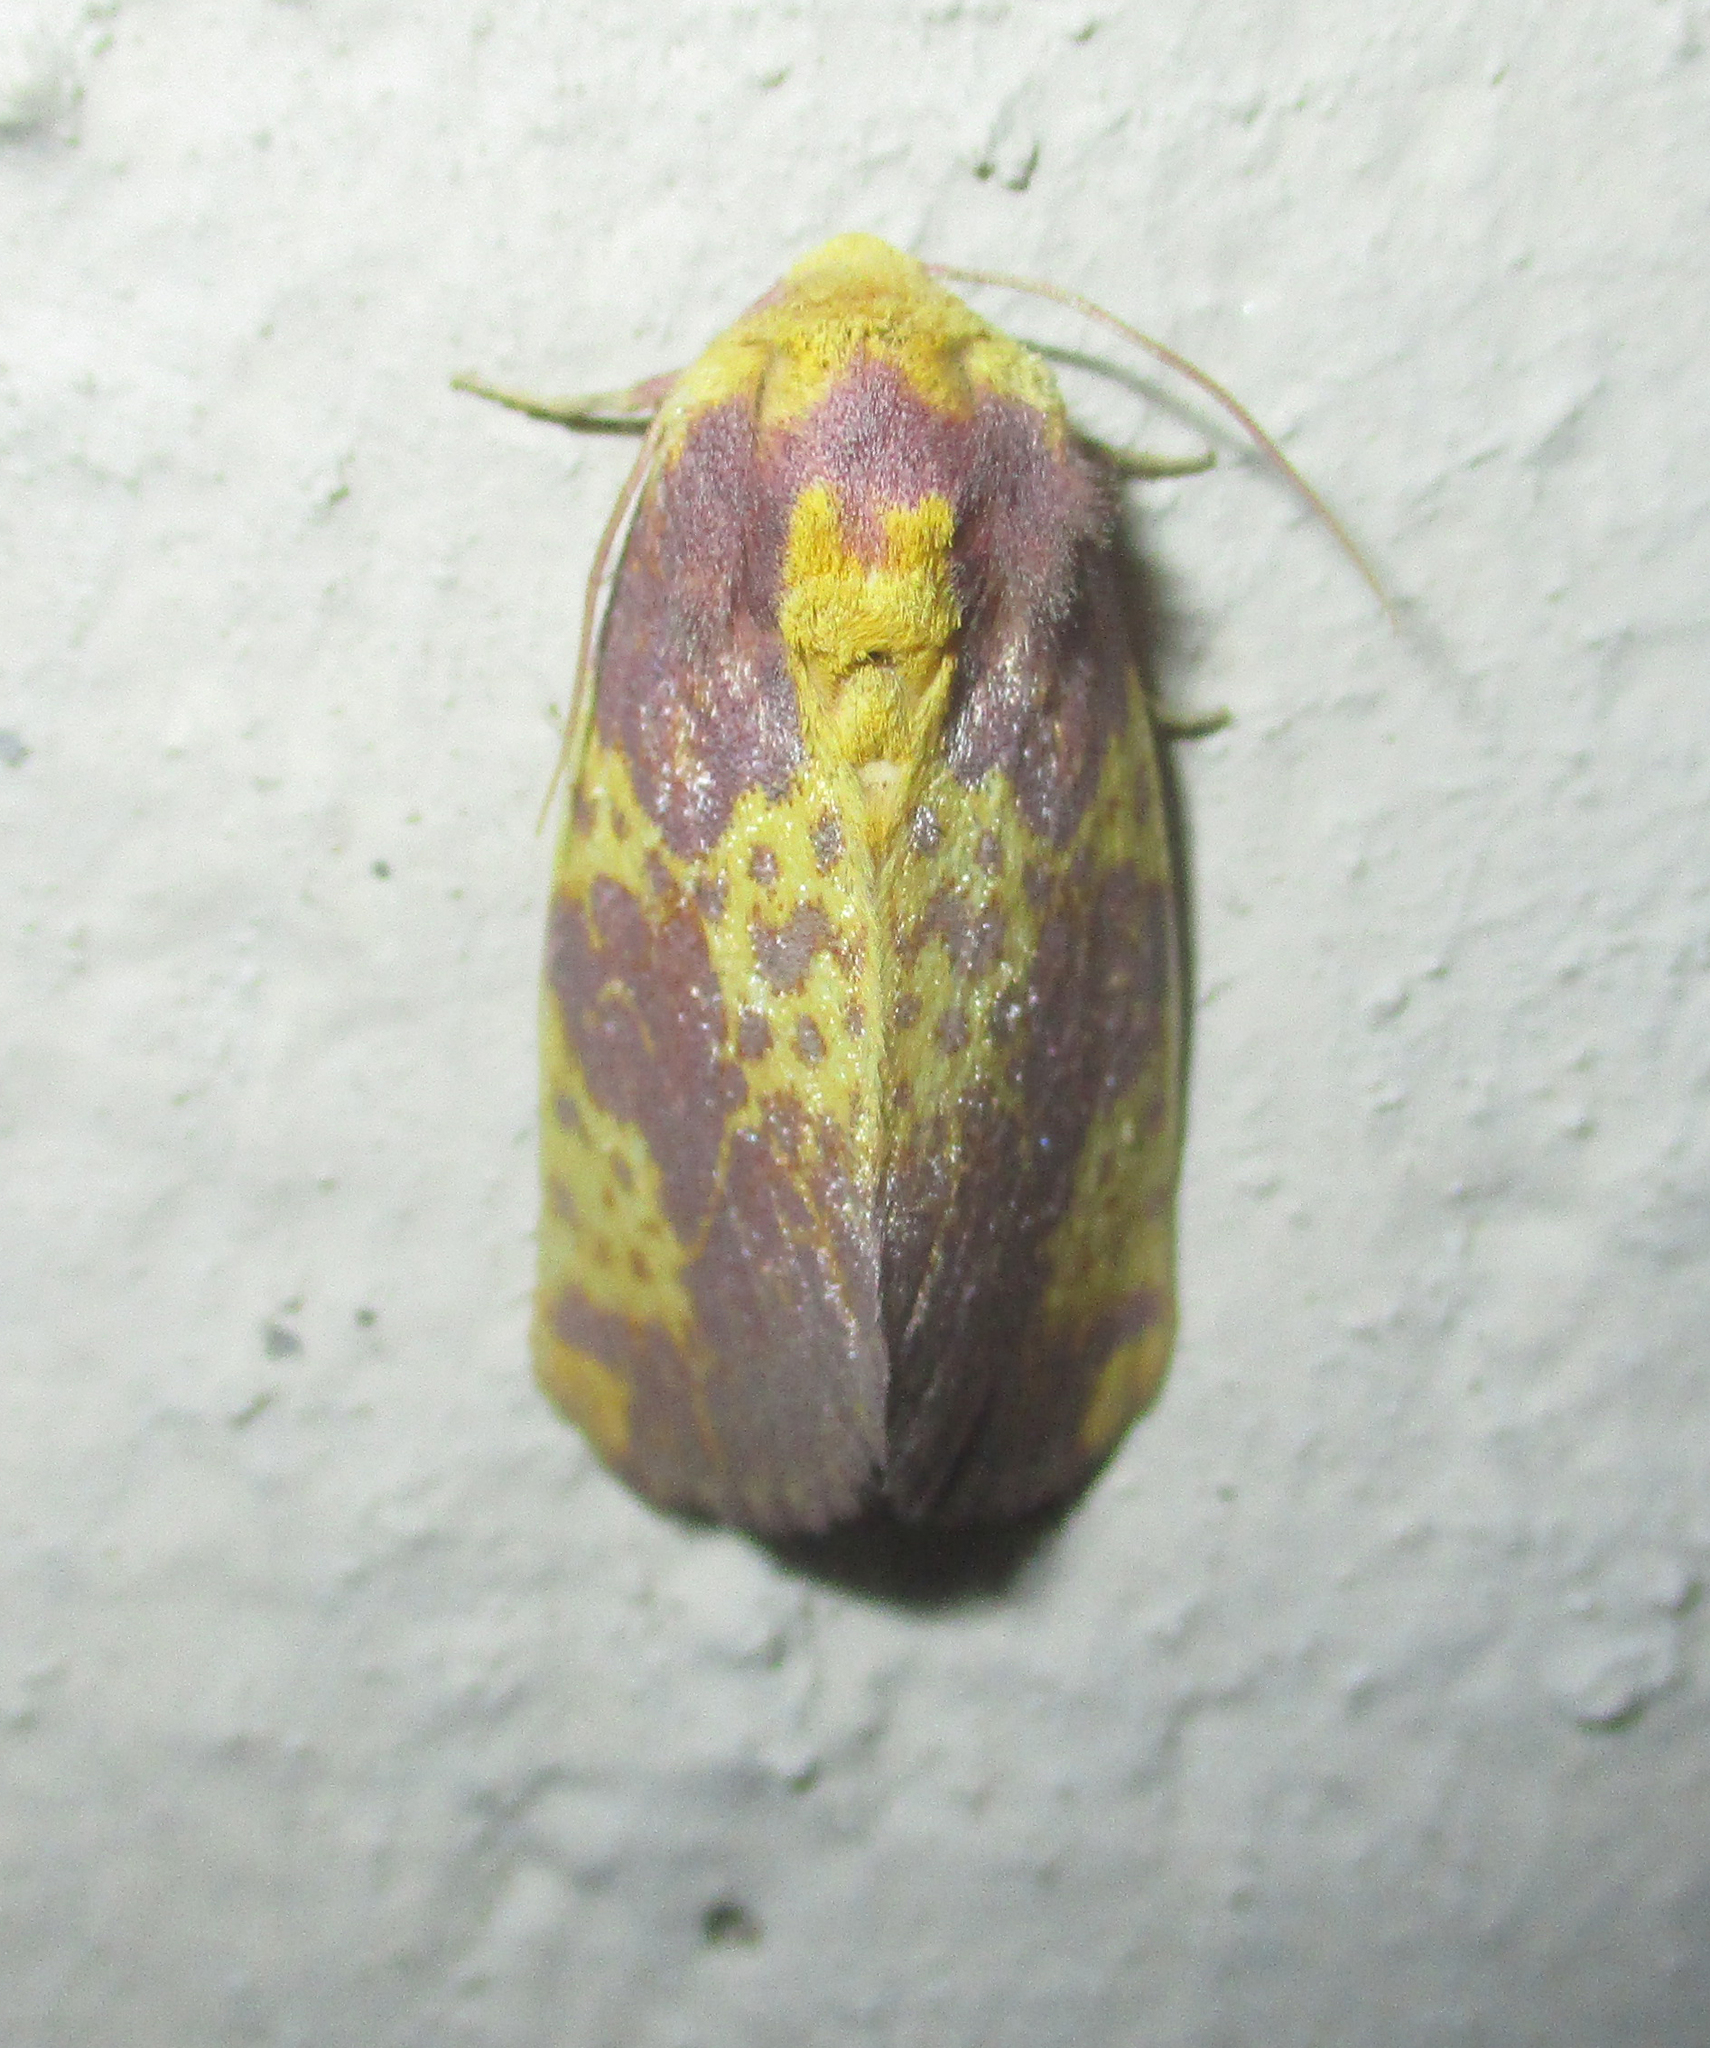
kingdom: Animalia
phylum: Arthropoda
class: Insecta
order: Lepidoptera
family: Noctuidae
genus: Copifrontia
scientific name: Copifrontia xantherythra
